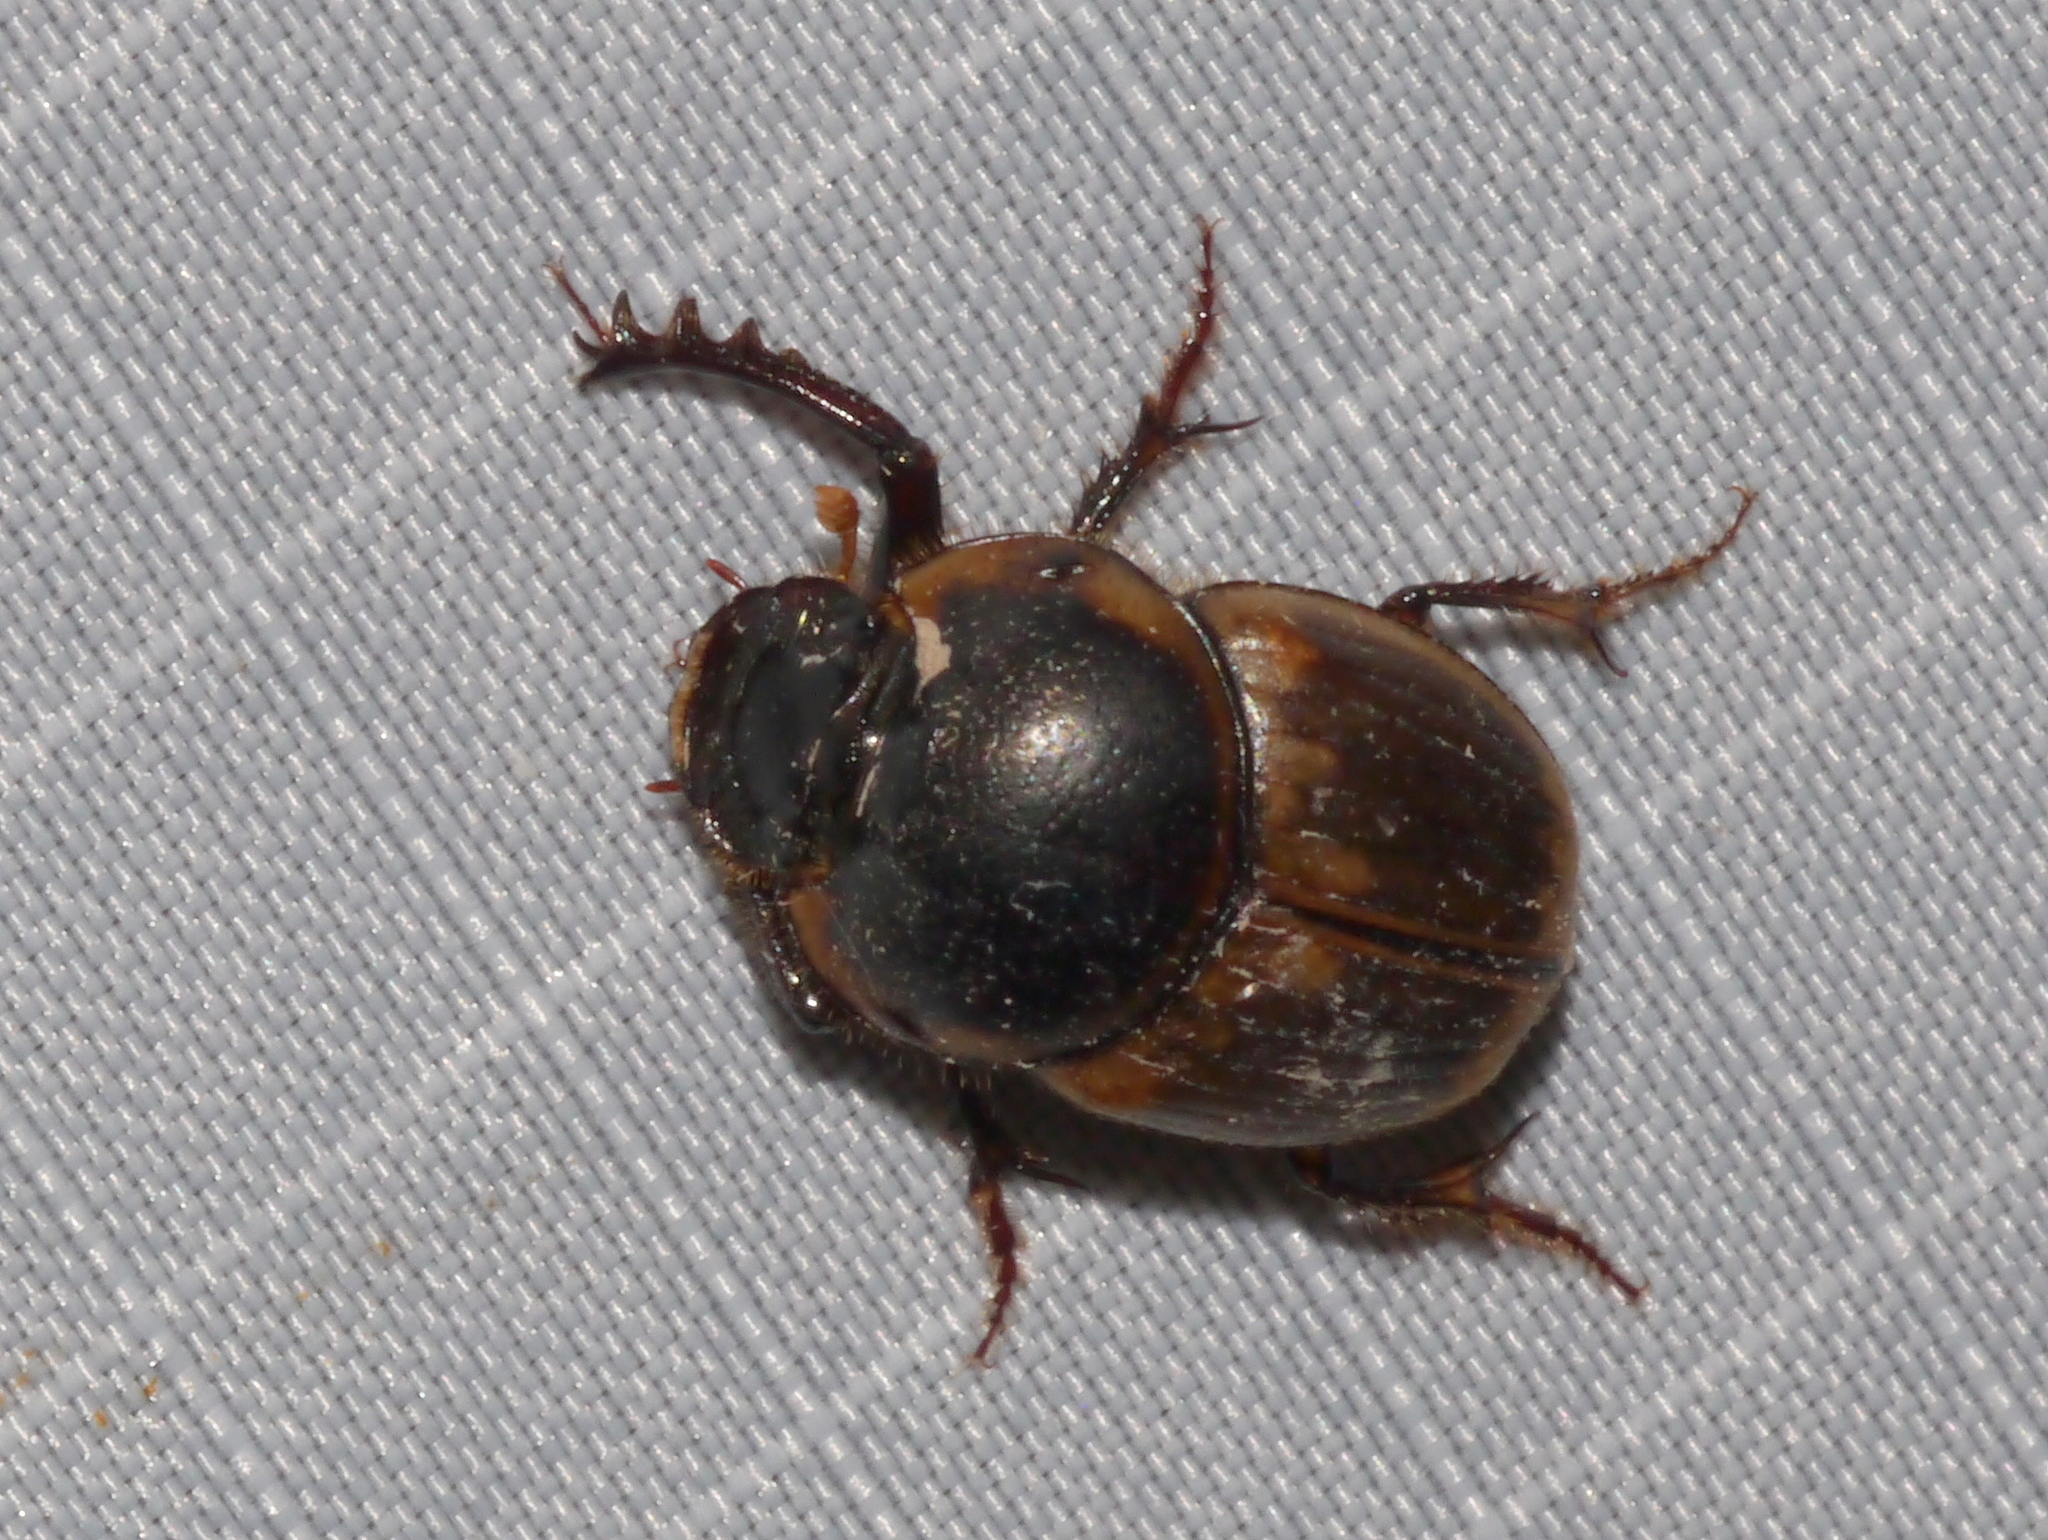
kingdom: Animalia
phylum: Arthropoda
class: Insecta
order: Coleoptera
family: Scarabaeidae
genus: Digitonthophagus
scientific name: Digitonthophagus gazella
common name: Brown dung beetle
